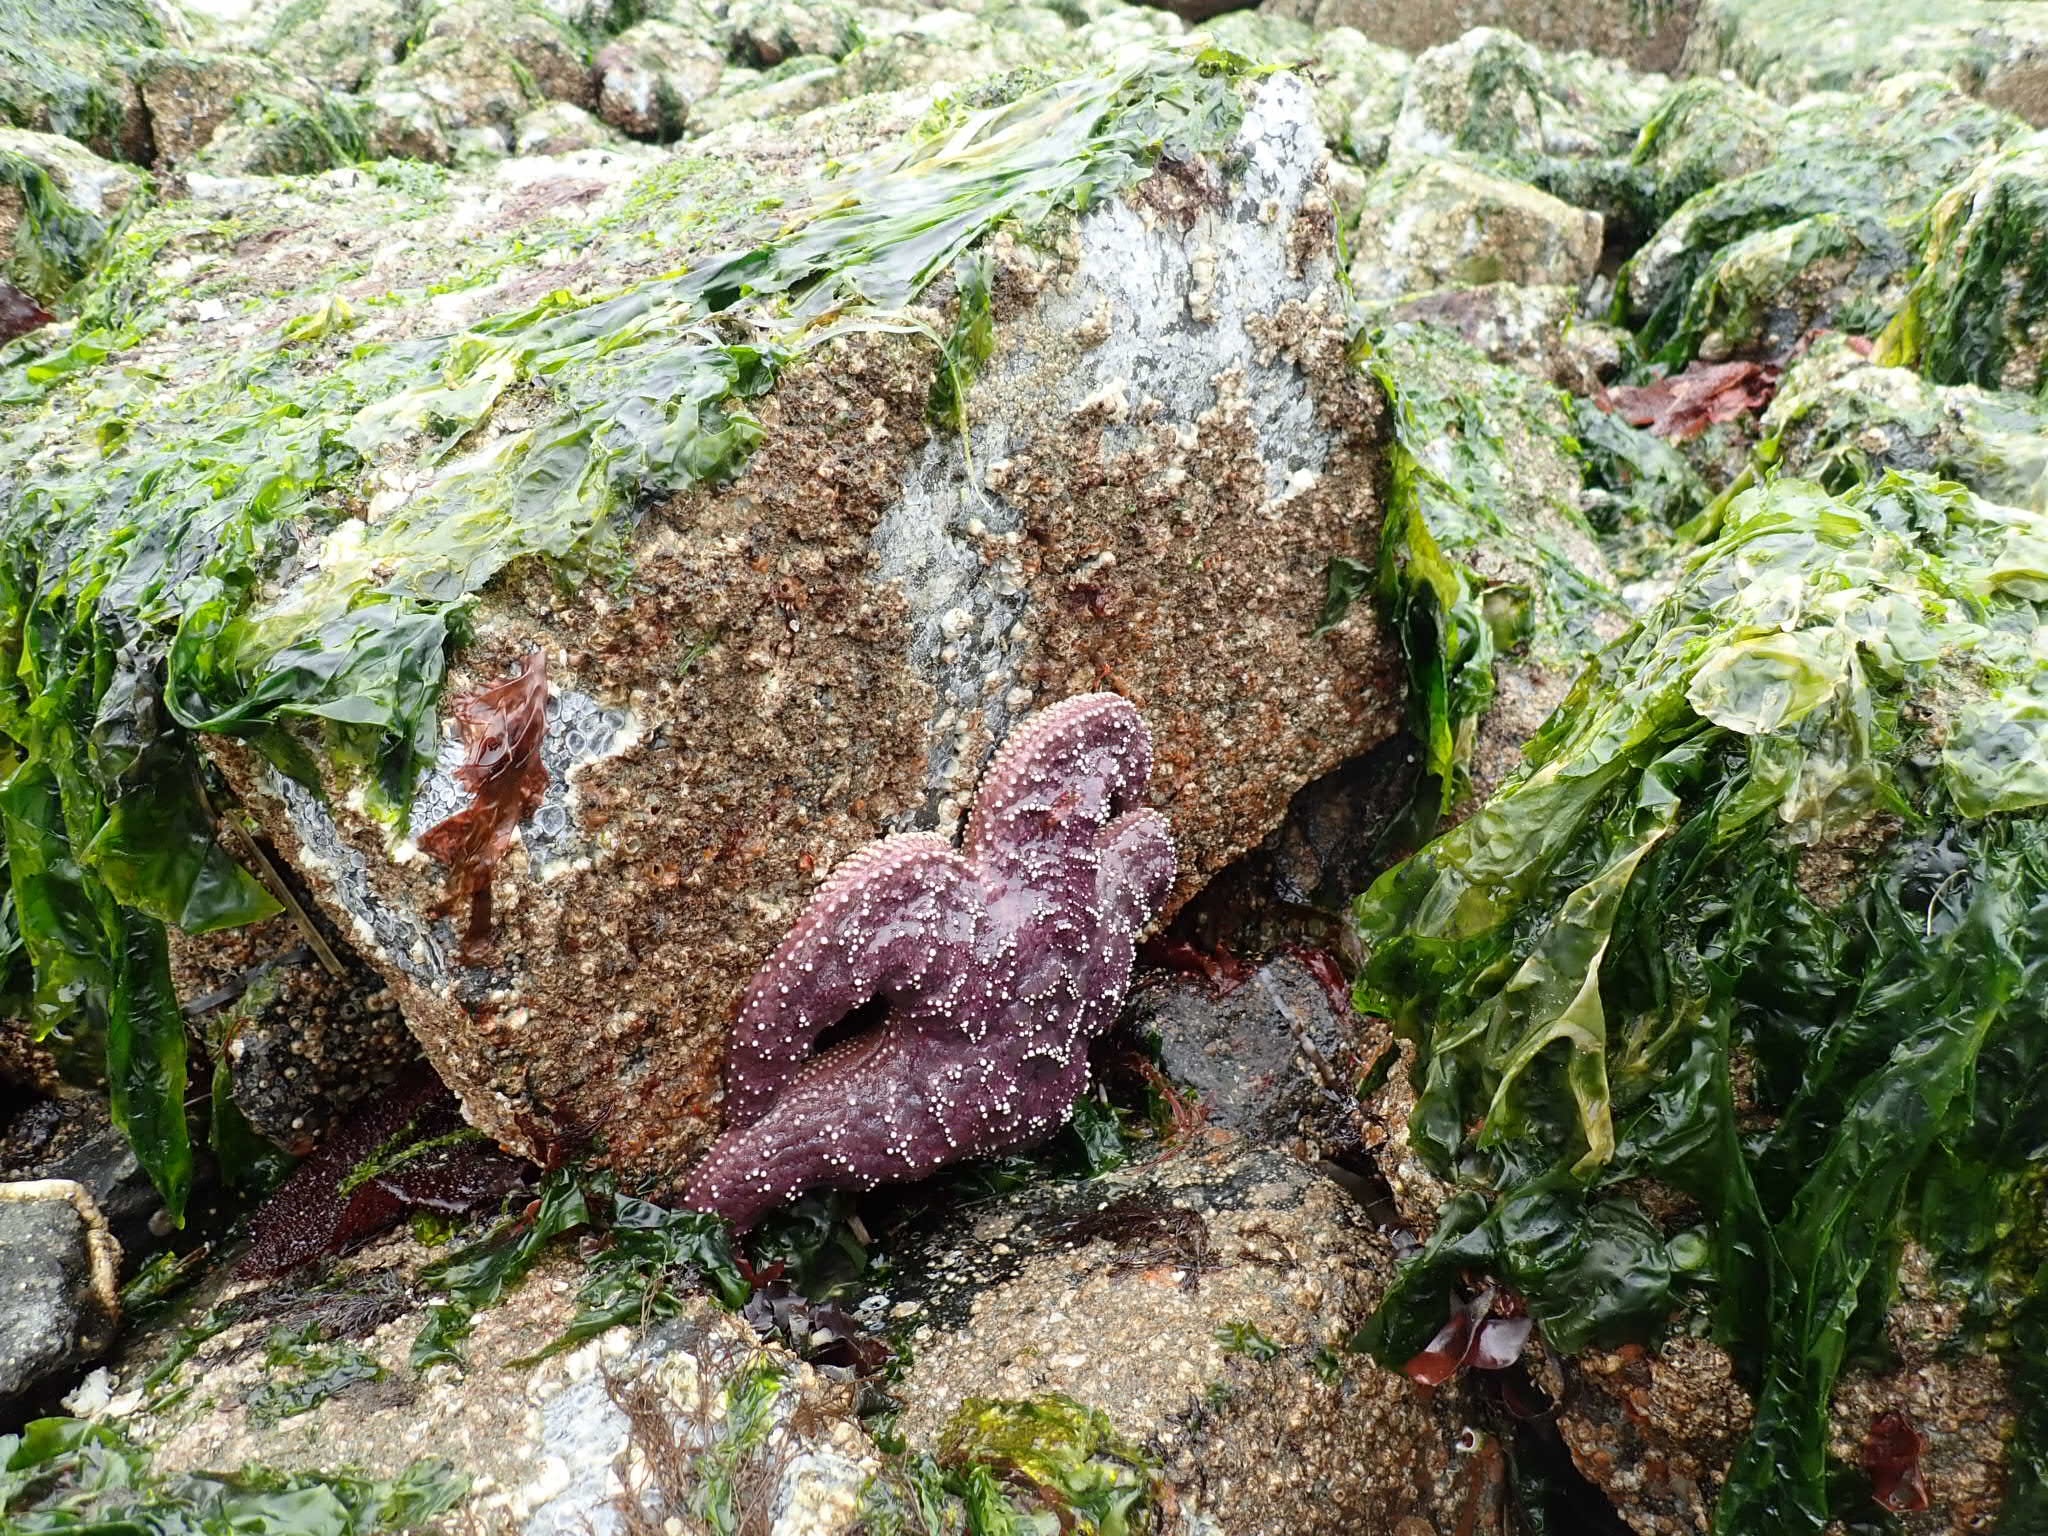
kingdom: Animalia
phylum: Echinodermata
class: Asteroidea
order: Forcipulatida
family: Asteriidae
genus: Pisaster
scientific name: Pisaster ochraceus
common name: Ochre stars
